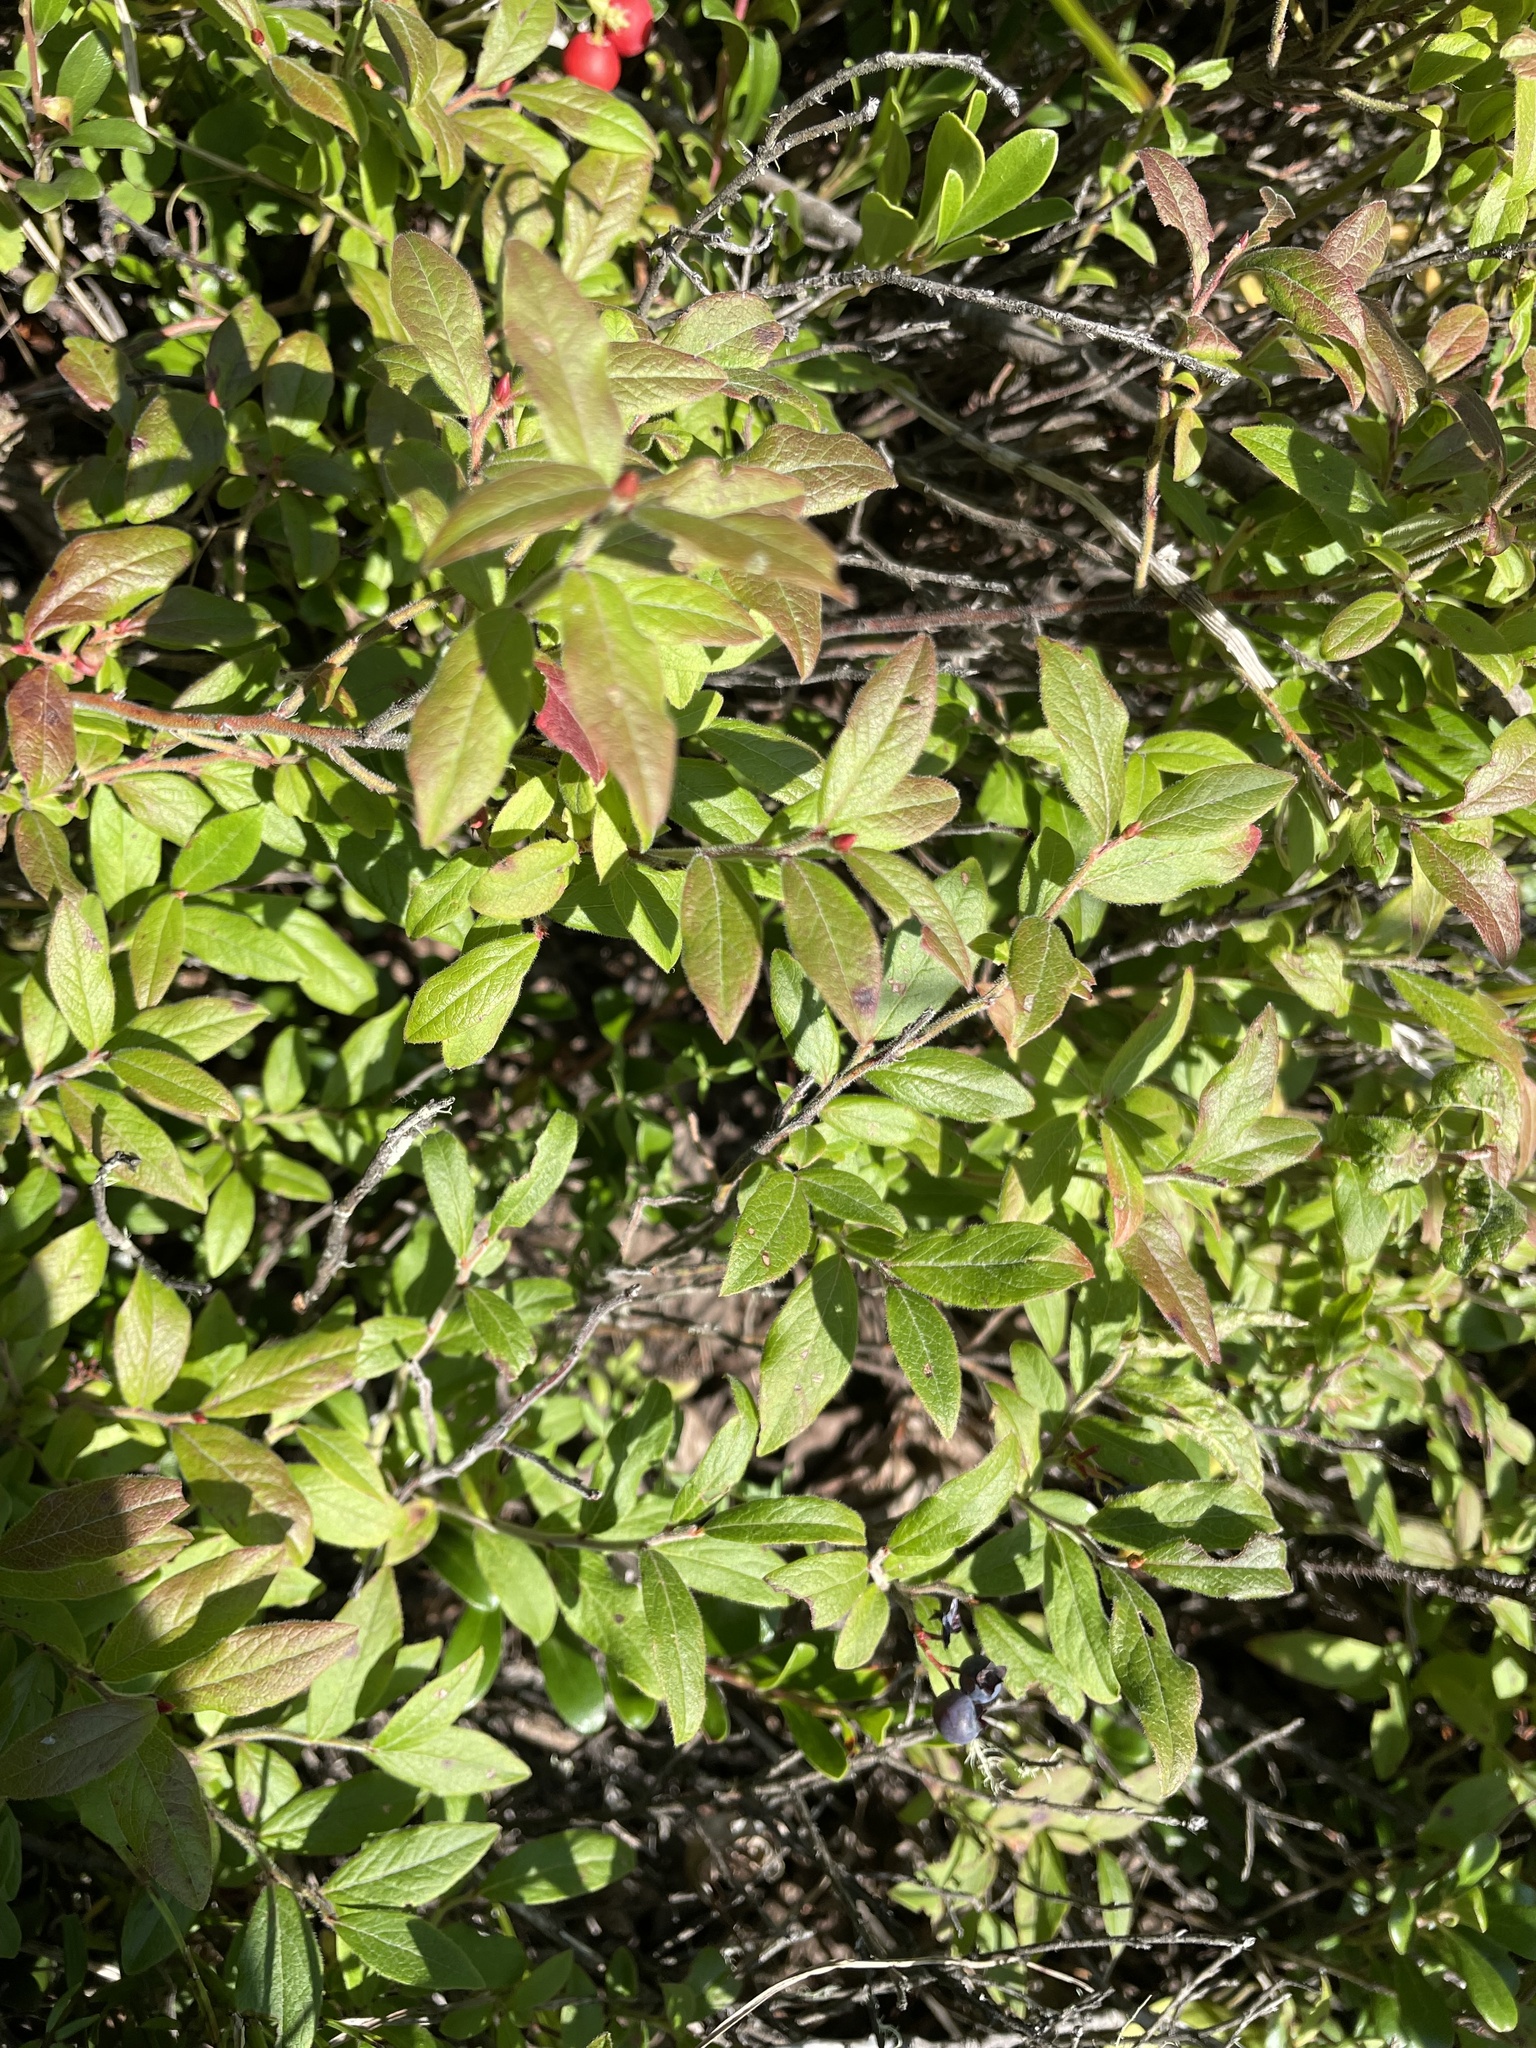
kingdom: Plantae
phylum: Tracheophyta
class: Magnoliopsida
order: Ericales
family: Ericaceae
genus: Vaccinium
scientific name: Vaccinium myrtilloides
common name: Canada blueberry
